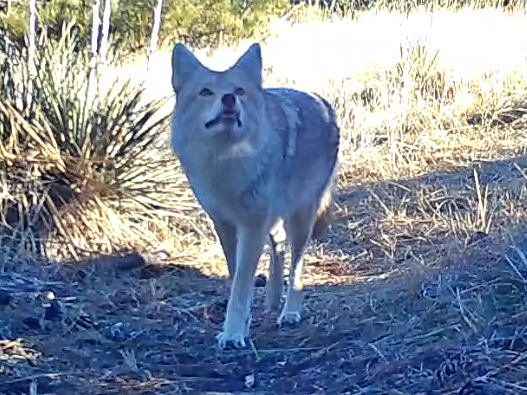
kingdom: Animalia
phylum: Chordata
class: Mammalia
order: Carnivora
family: Canidae
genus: Canis
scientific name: Canis latrans
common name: Coyote
